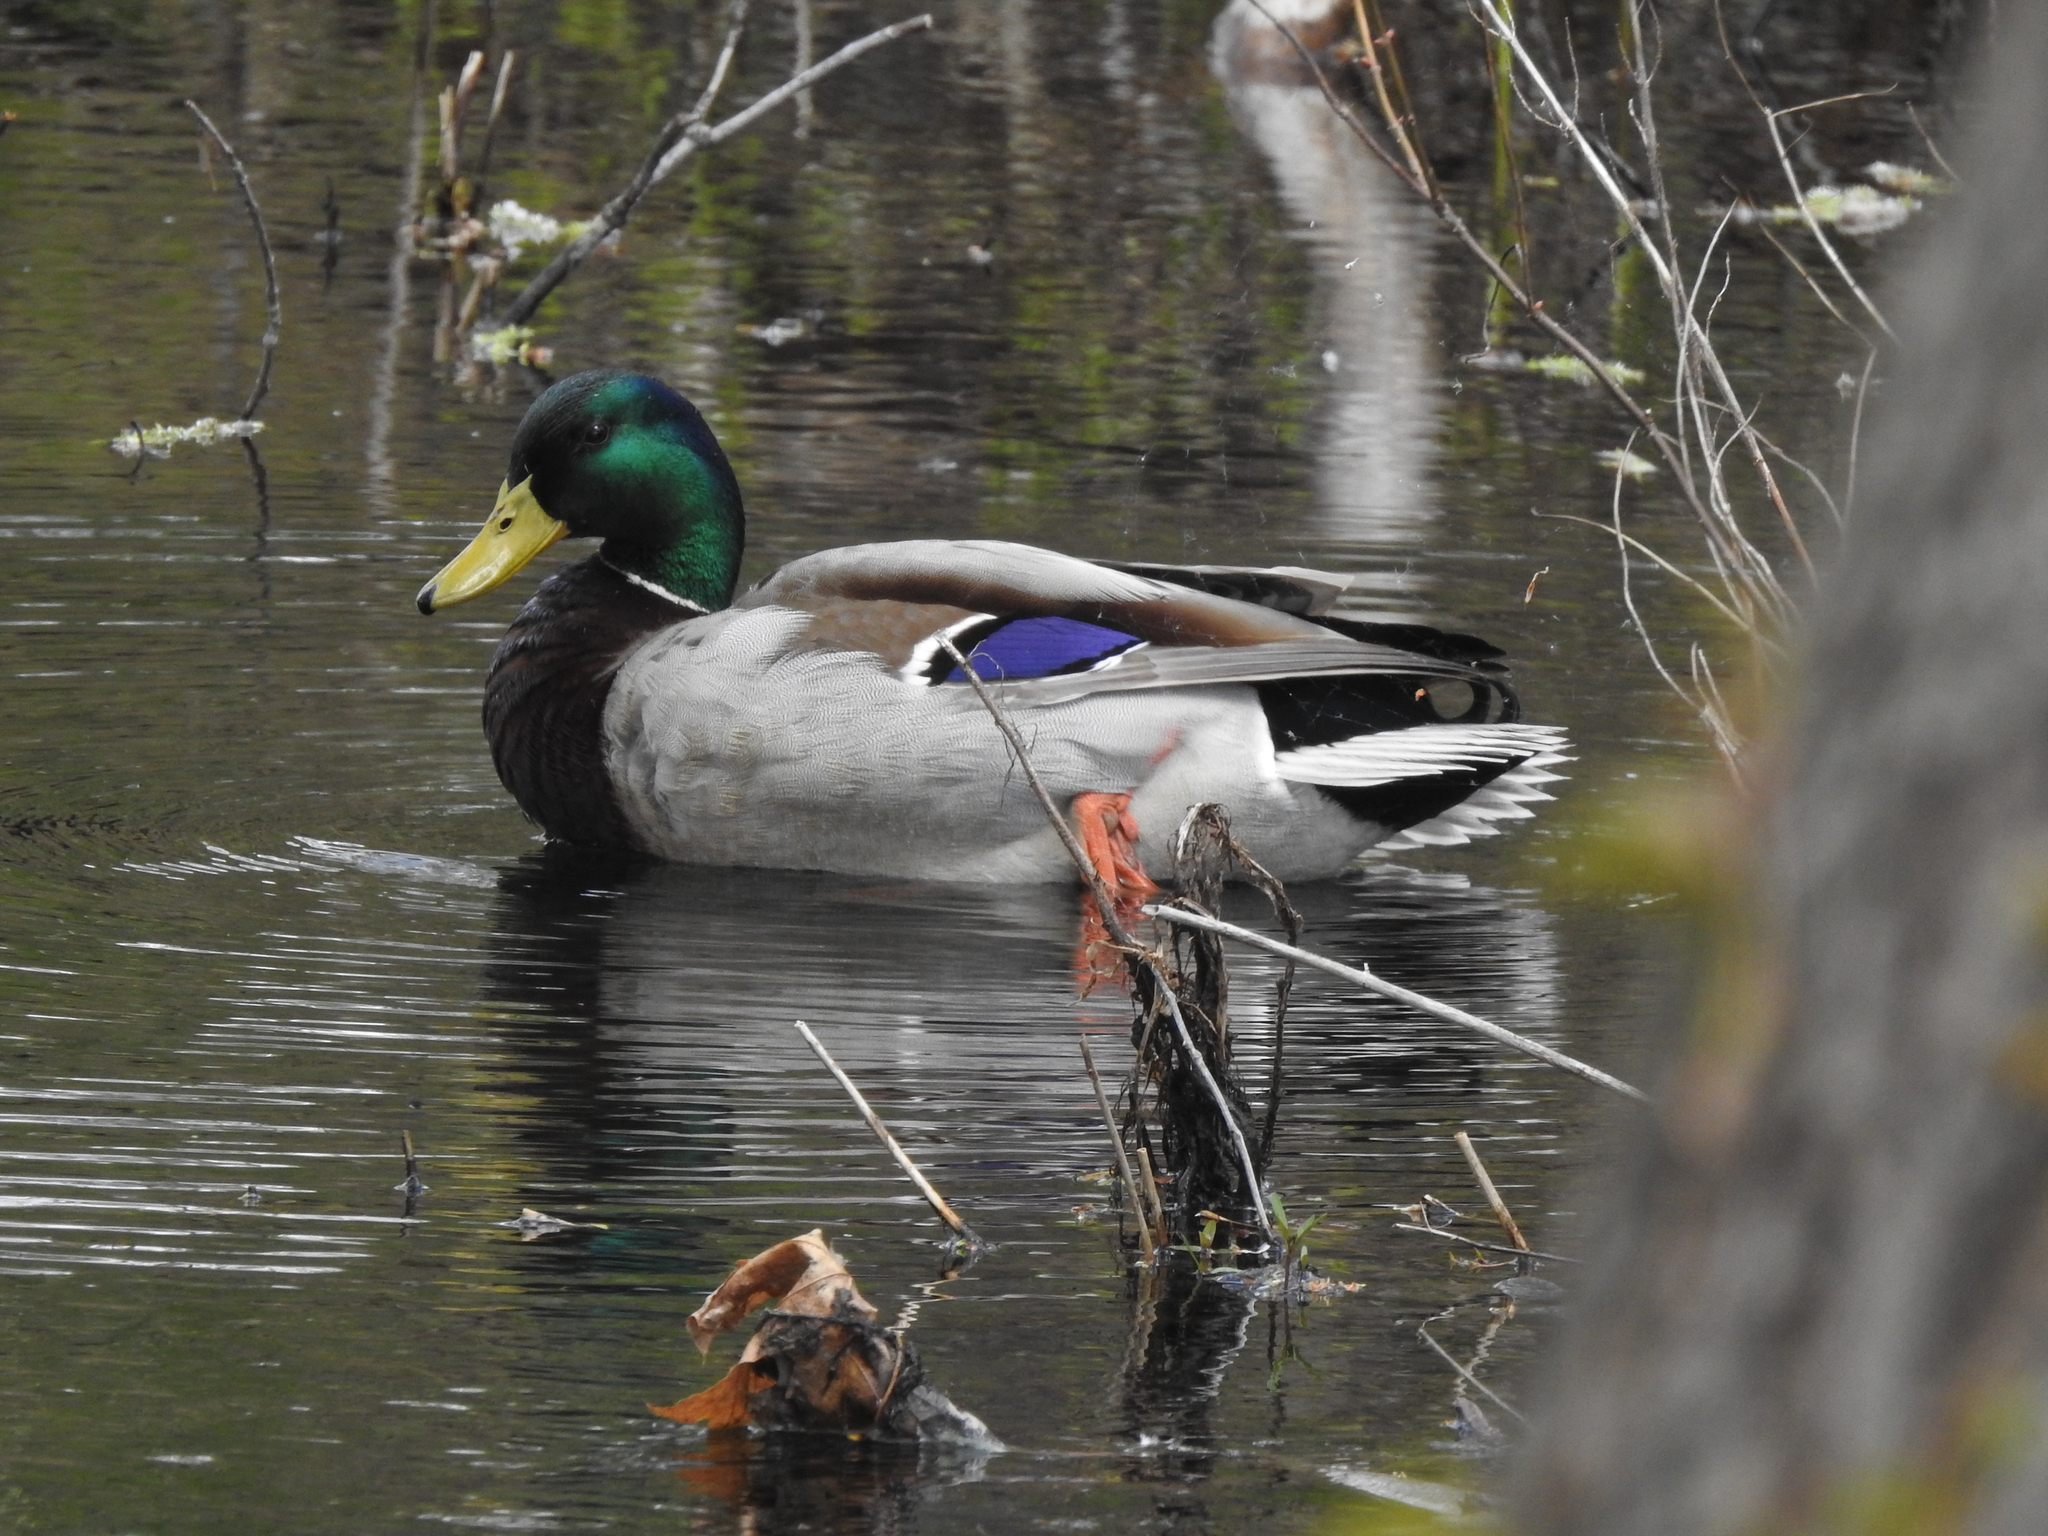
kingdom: Animalia
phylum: Chordata
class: Aves
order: Anseriformes
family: Anatidae
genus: Anas
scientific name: Anas platyrhynchos
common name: Mallard
